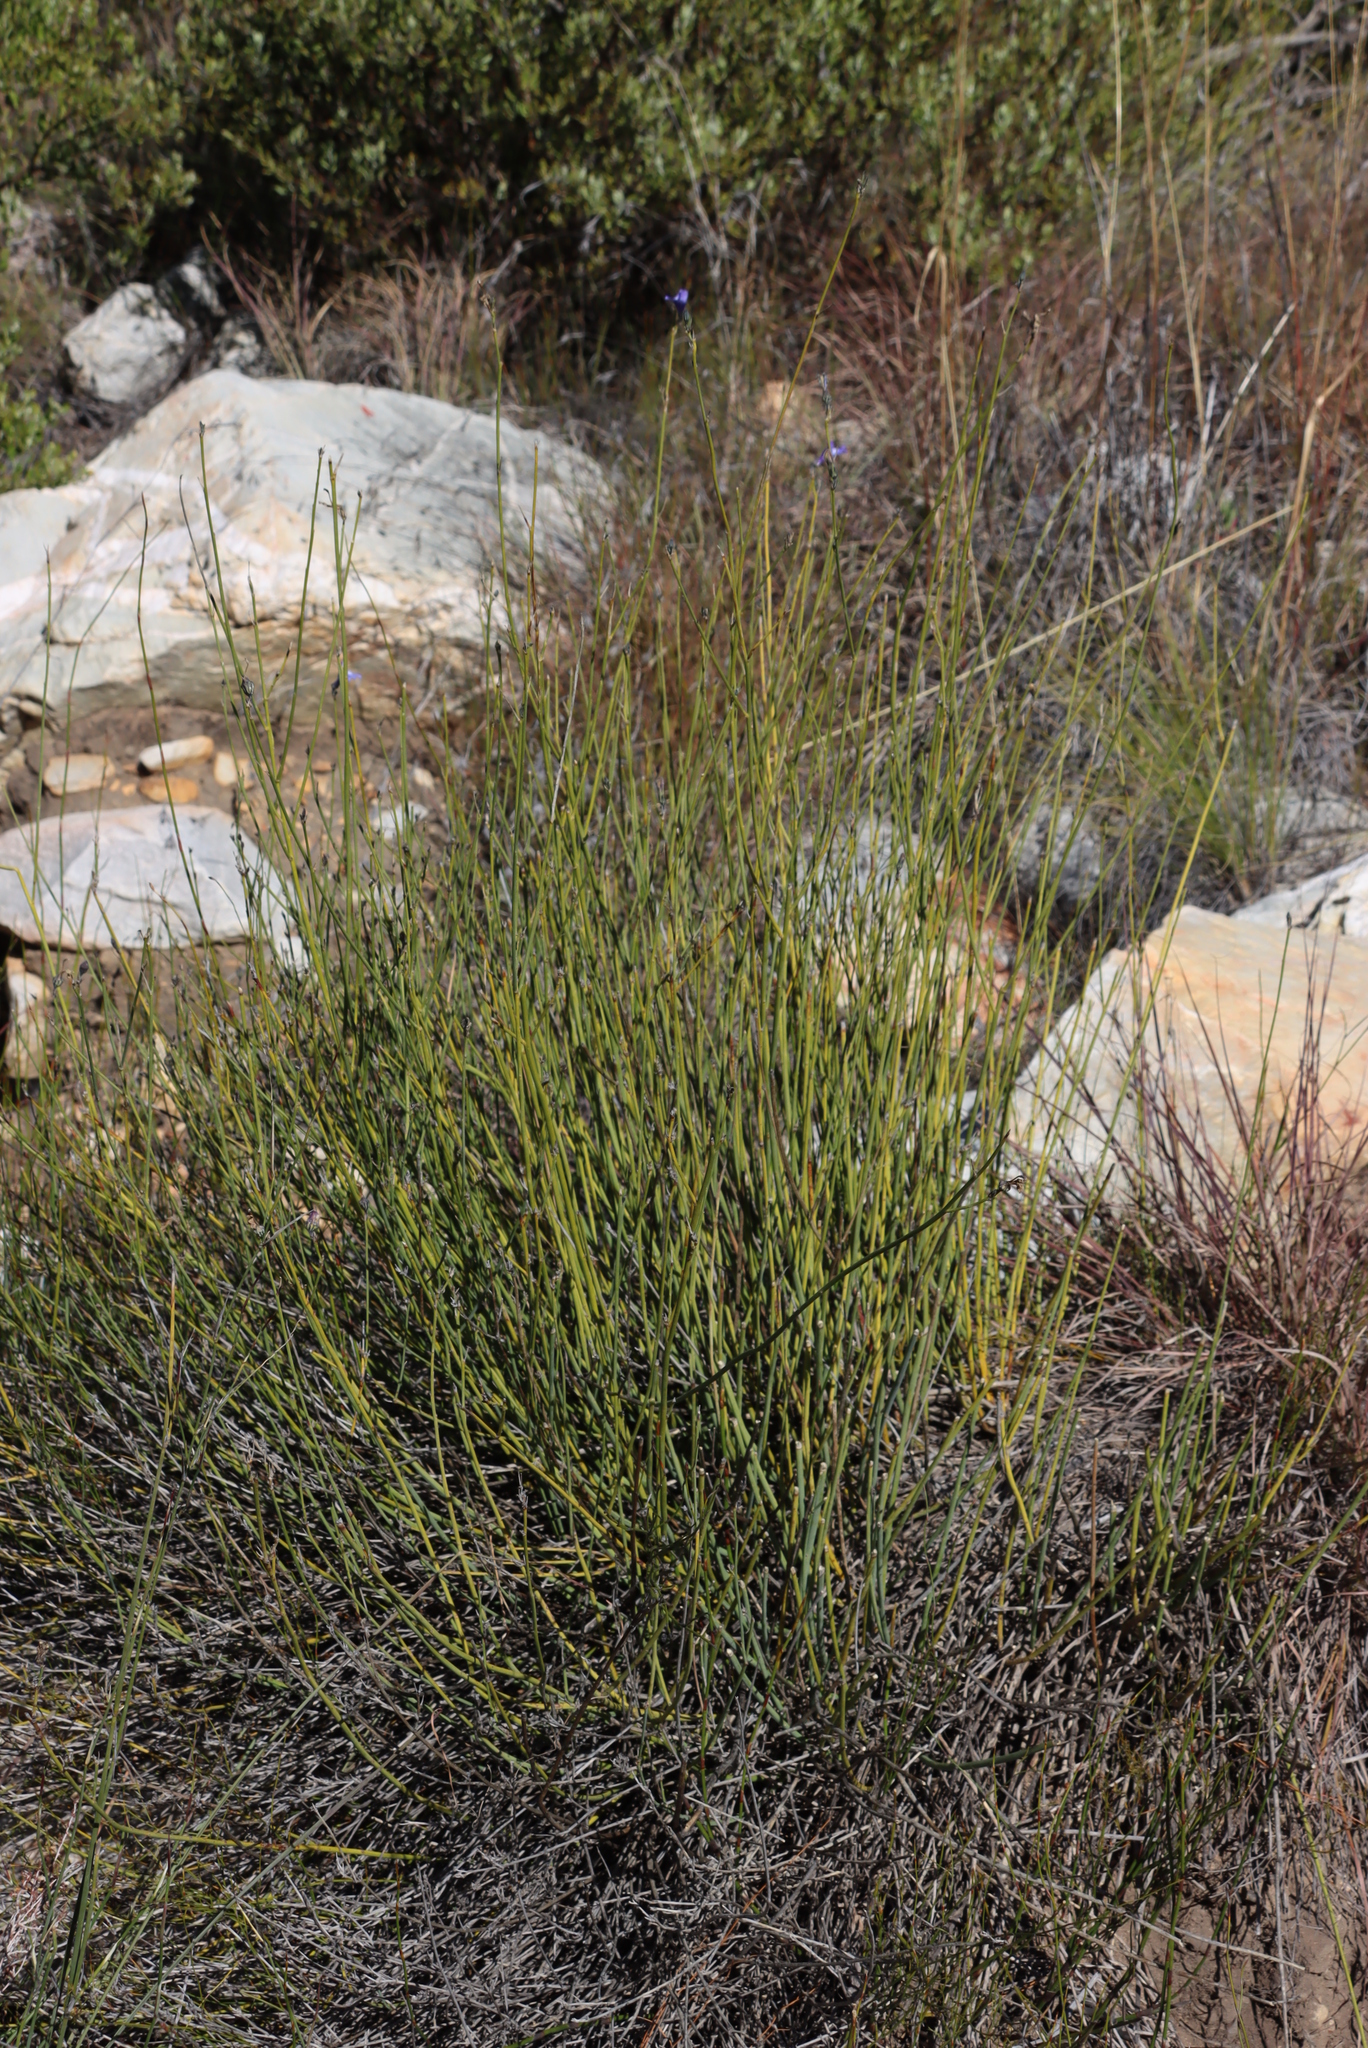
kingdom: Plantae
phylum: Tracheophyta
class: Magnoliopsida
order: Asterales
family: Campanulaceae
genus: Lobelia
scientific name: Lobelia linearis
